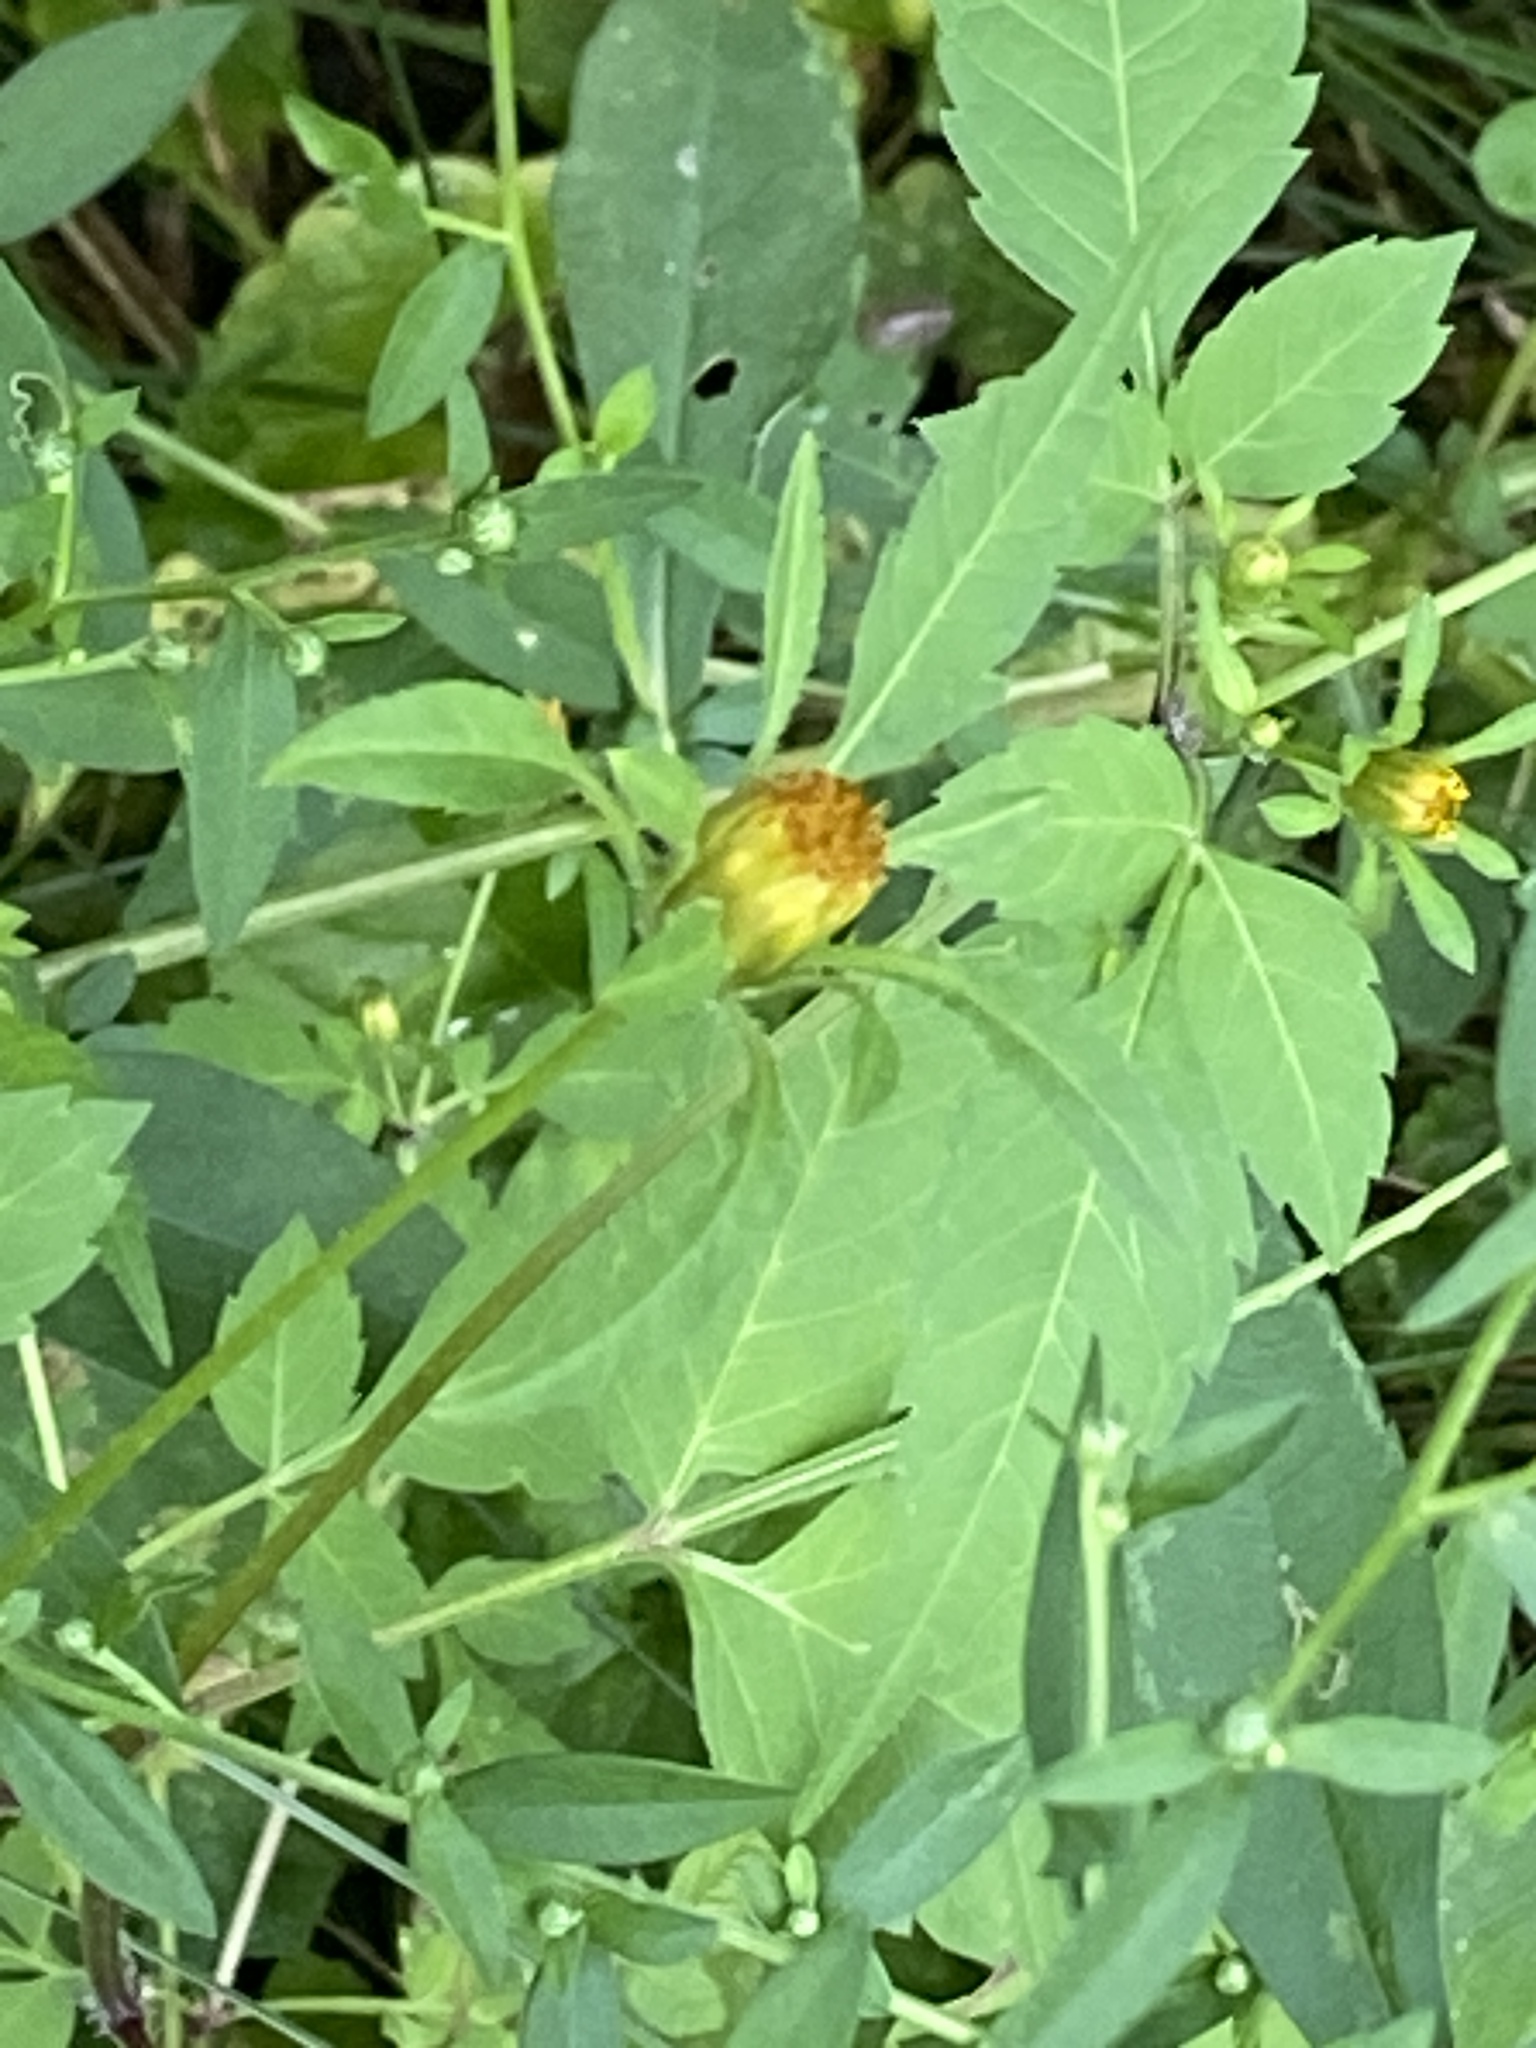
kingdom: Plantae
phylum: Tracheophyta
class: Magnoliopsida
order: Asterales
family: Asteraceae
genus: Bidens
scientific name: Bidens frondosa
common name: Beggarticks
